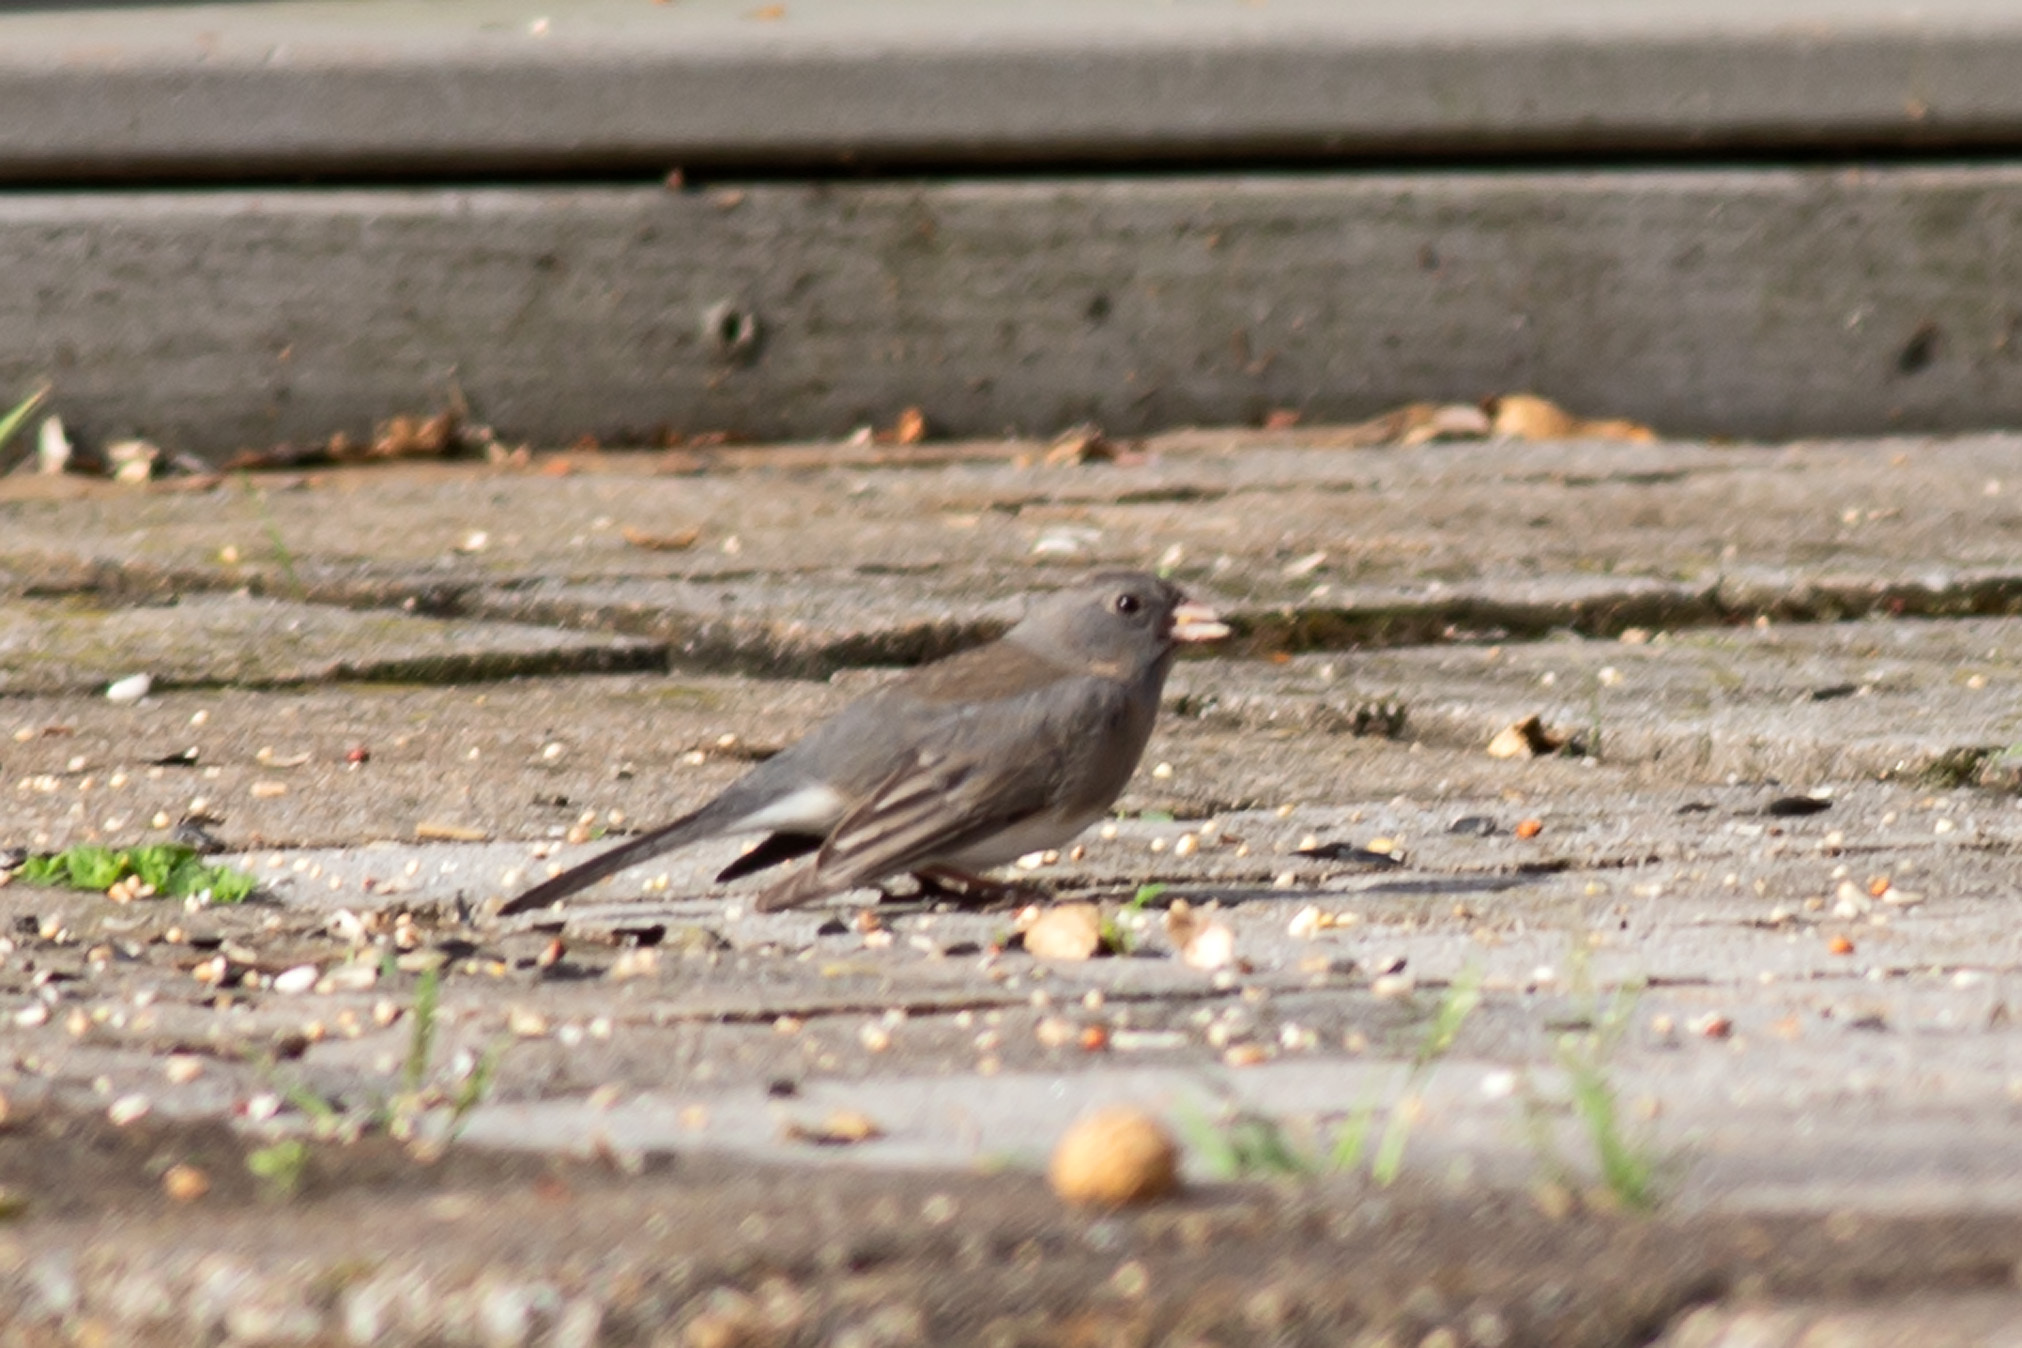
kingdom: Animalia
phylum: Chordata
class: Aves
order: Passeriformes
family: Passerellidae
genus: Junco
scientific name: Junco hyemalis
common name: Dark-eyed junco
